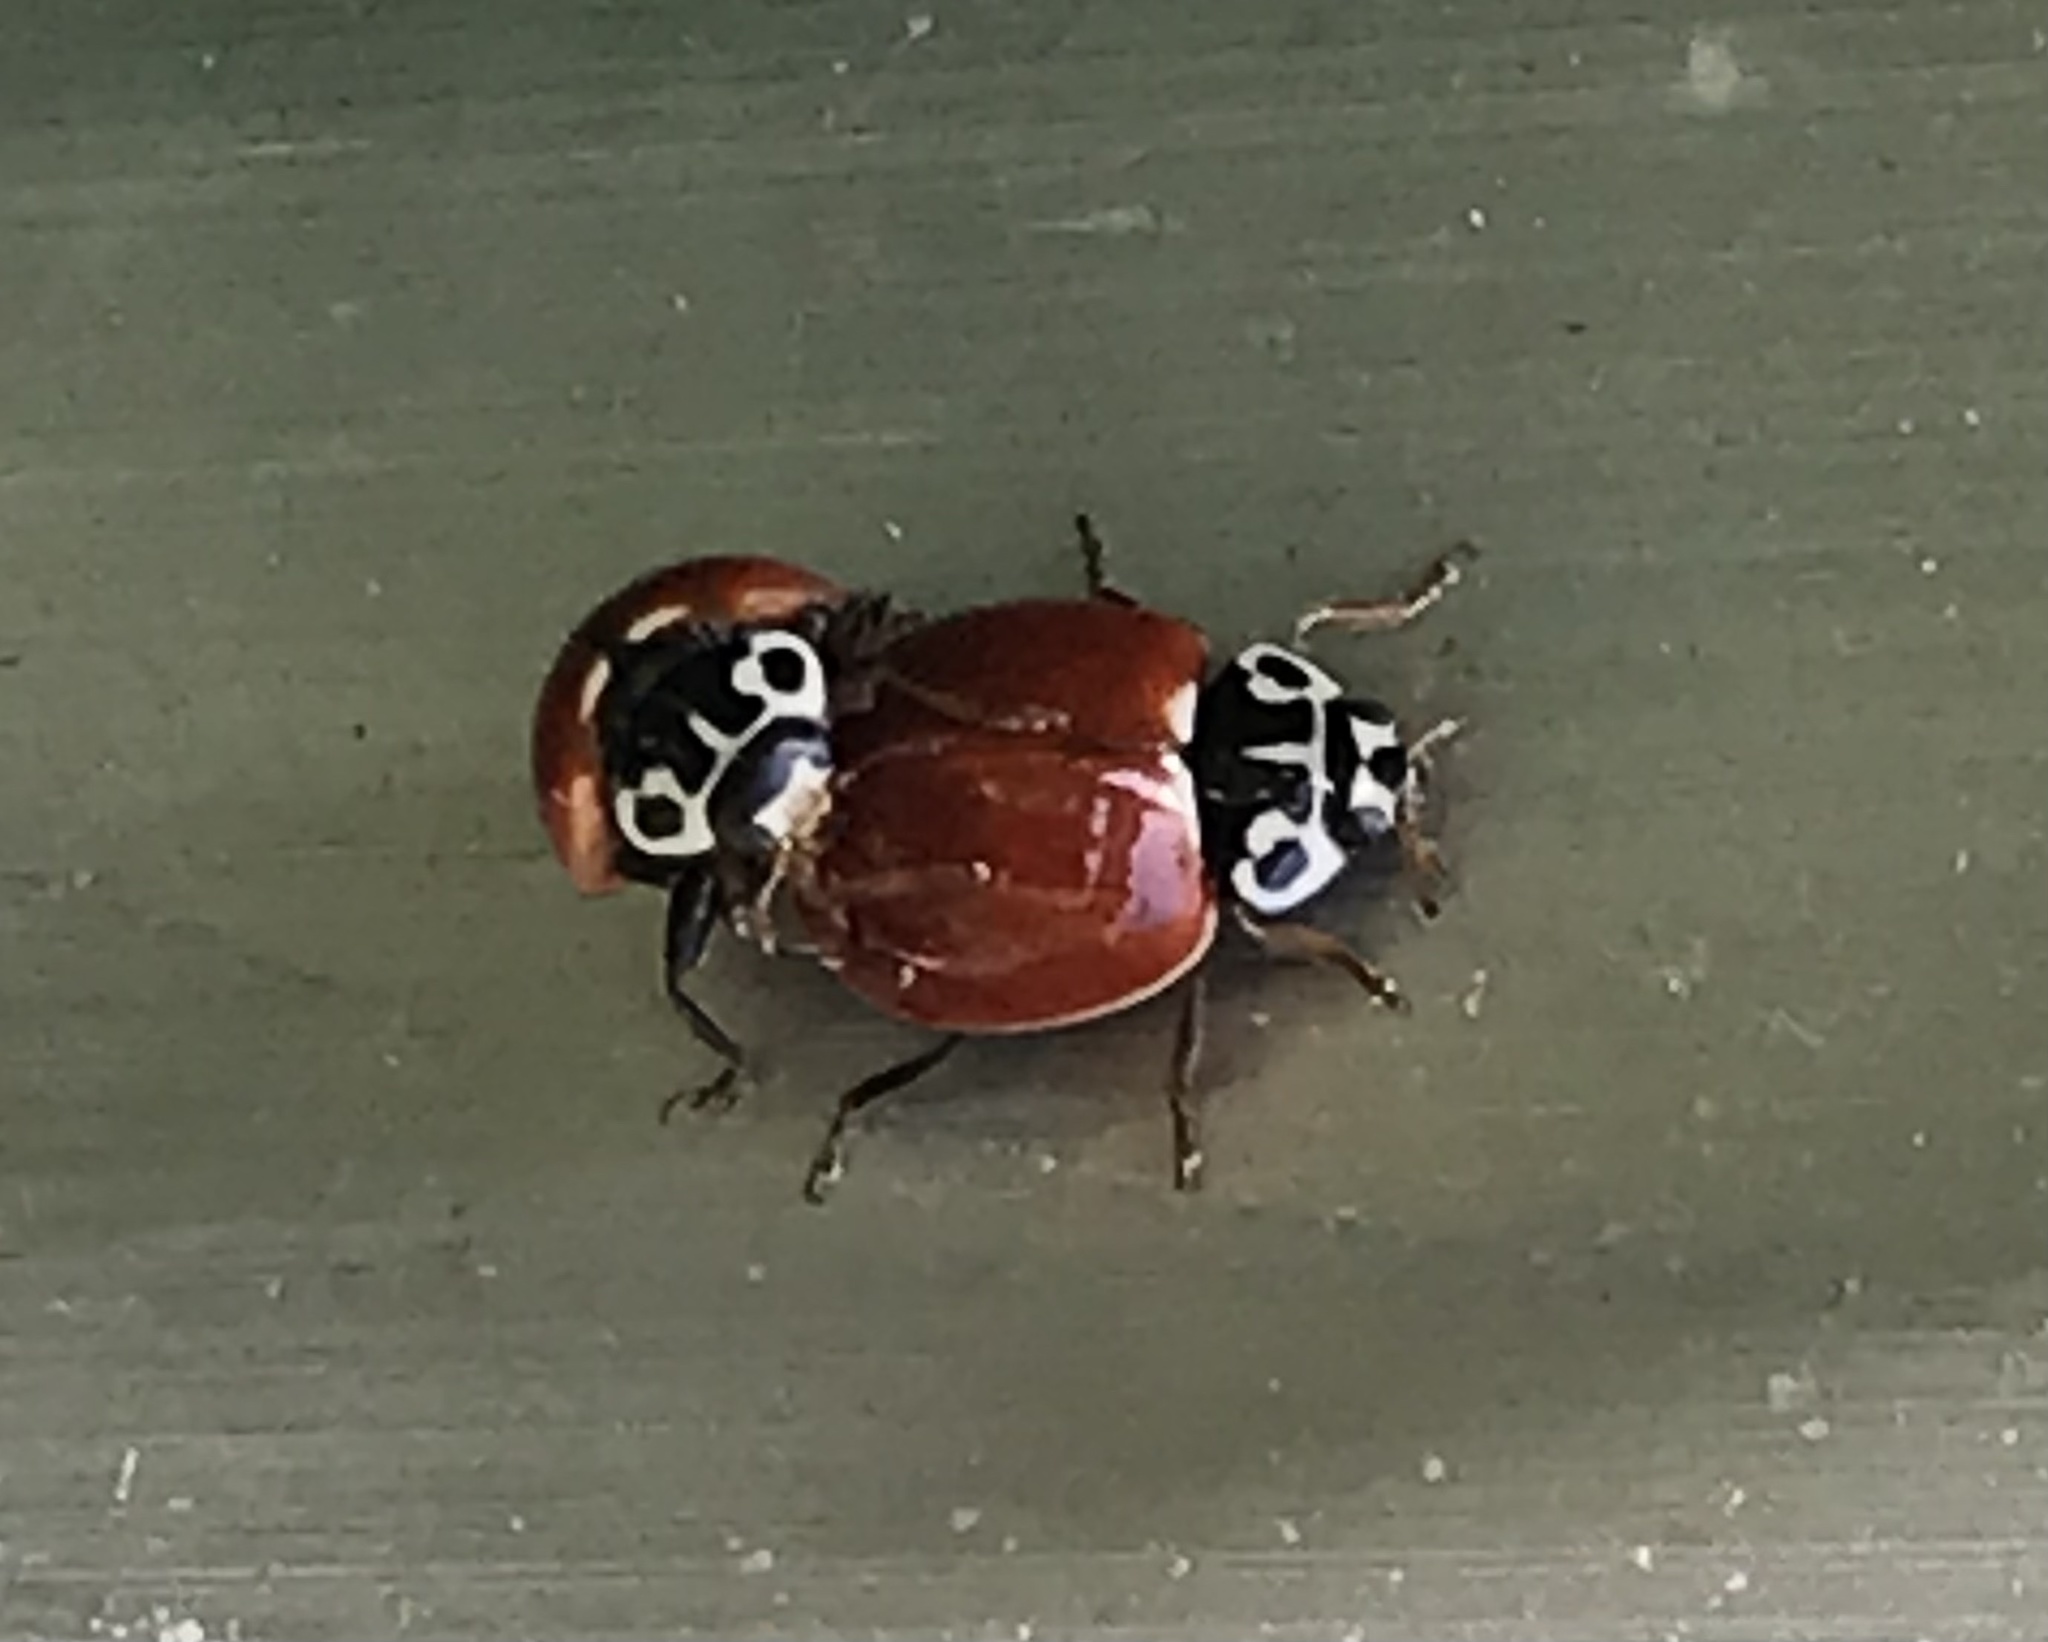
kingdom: Animalia
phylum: Arthropoda
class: Insecta
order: Coleoptera
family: Coccinellidae
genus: Cycloneda
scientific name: Cycloneda polita
